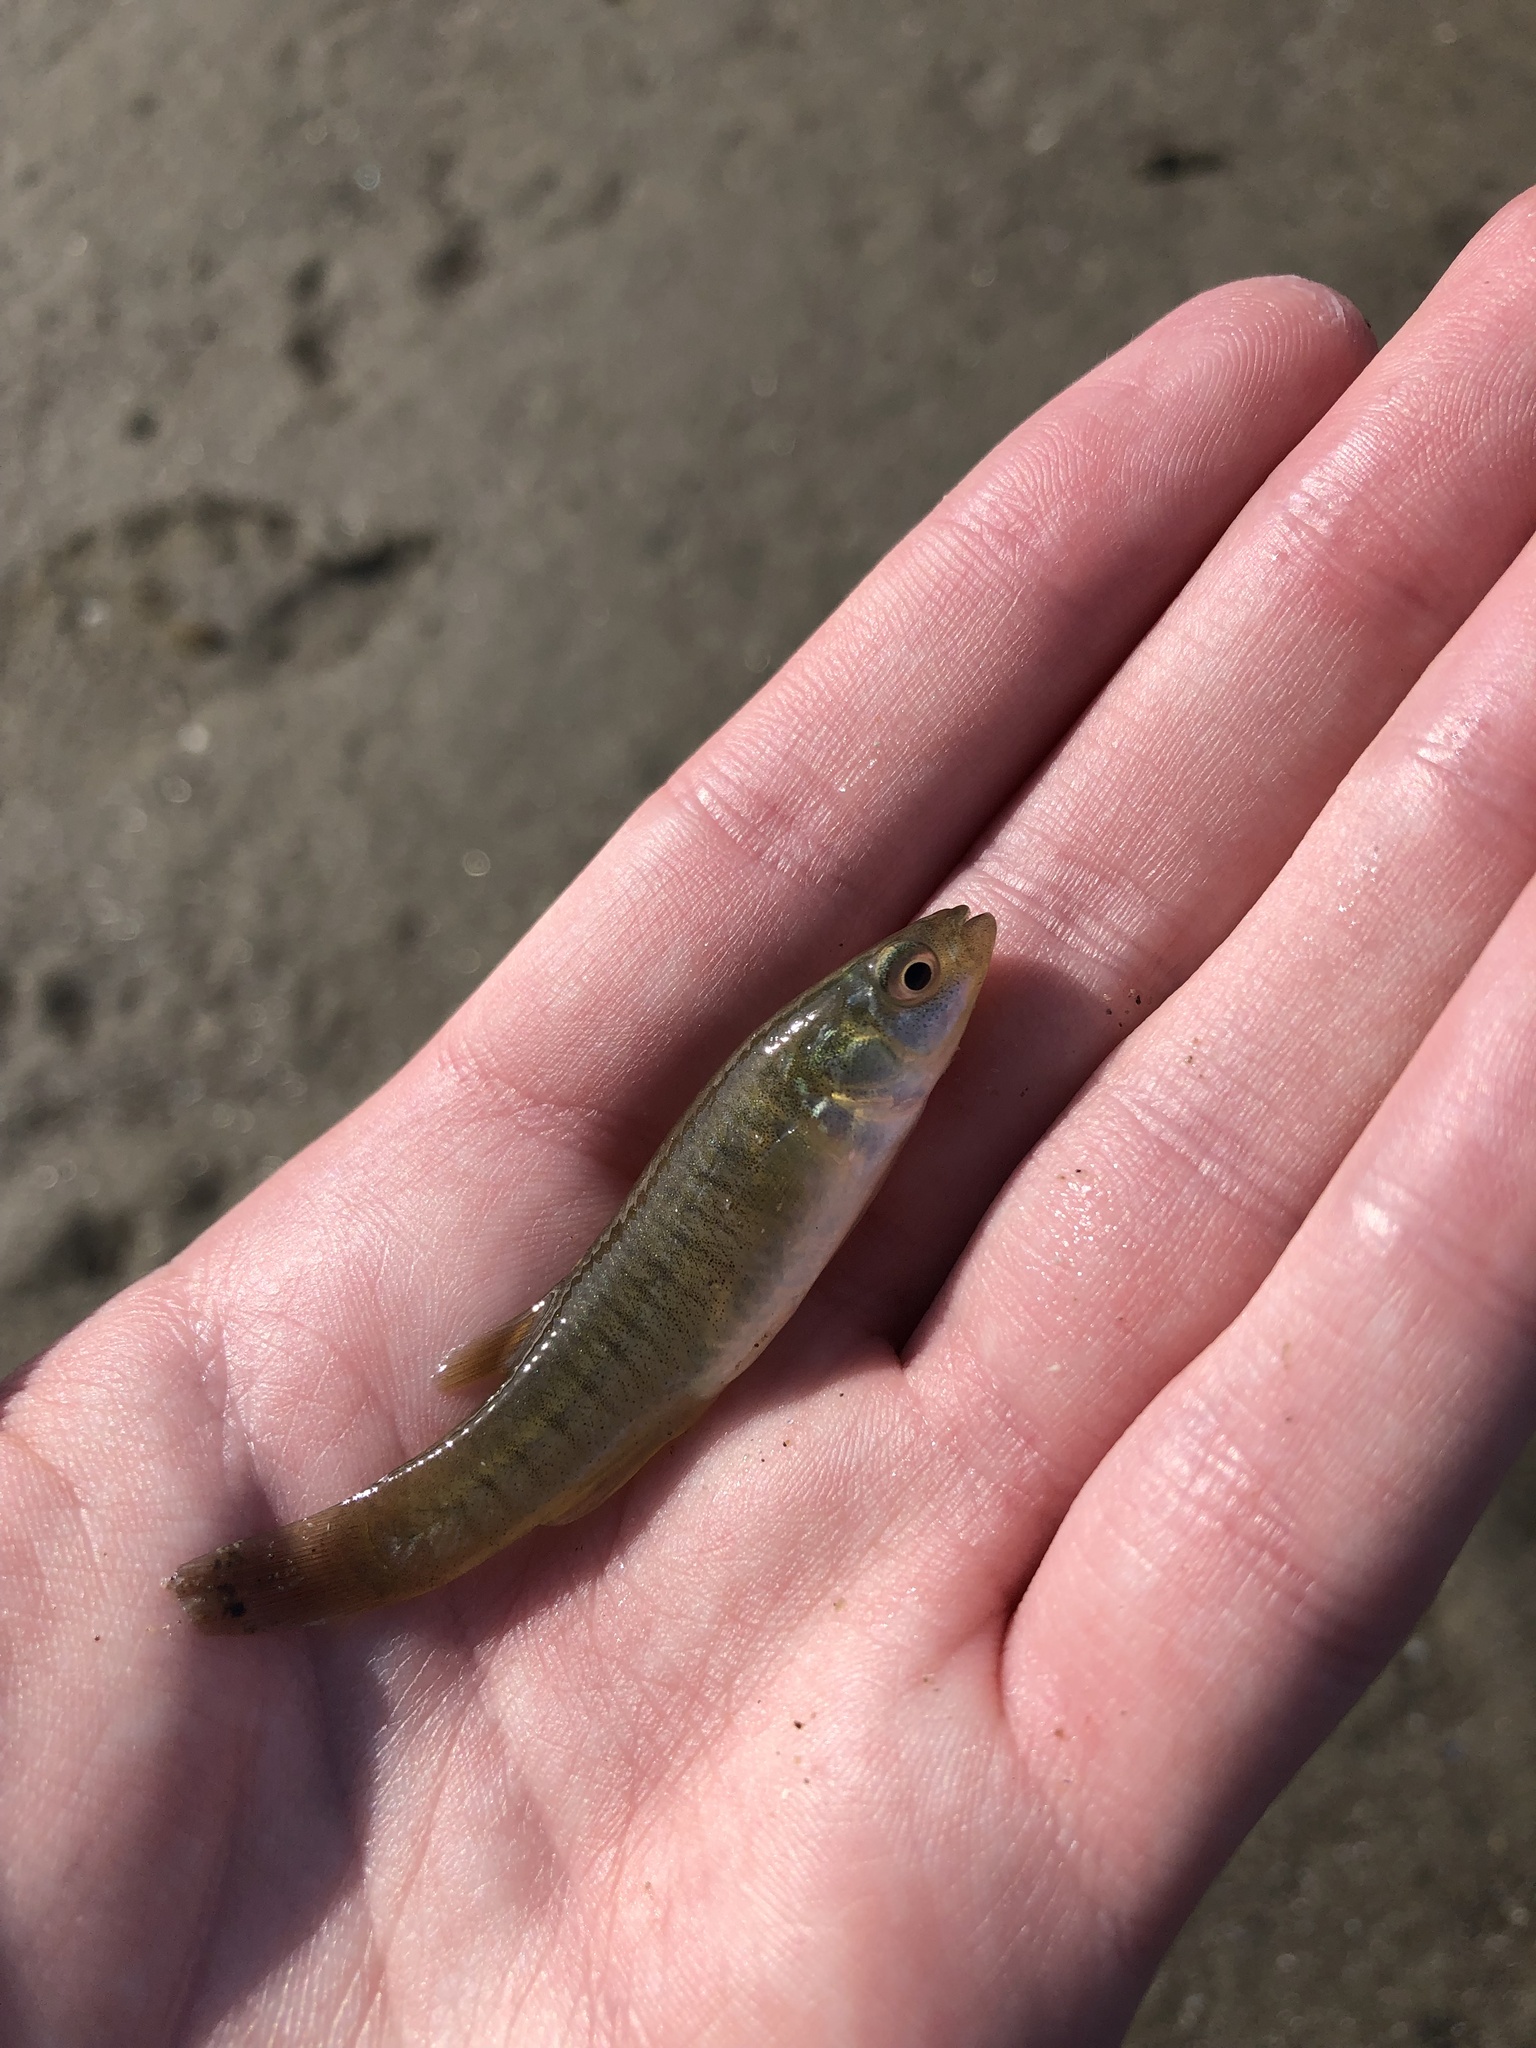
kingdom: Animalia
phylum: Chordata
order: Cyprinodontiformes
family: Fundulidae
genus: Fundulus
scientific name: Fundulus heteroclitus
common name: Mummichog
